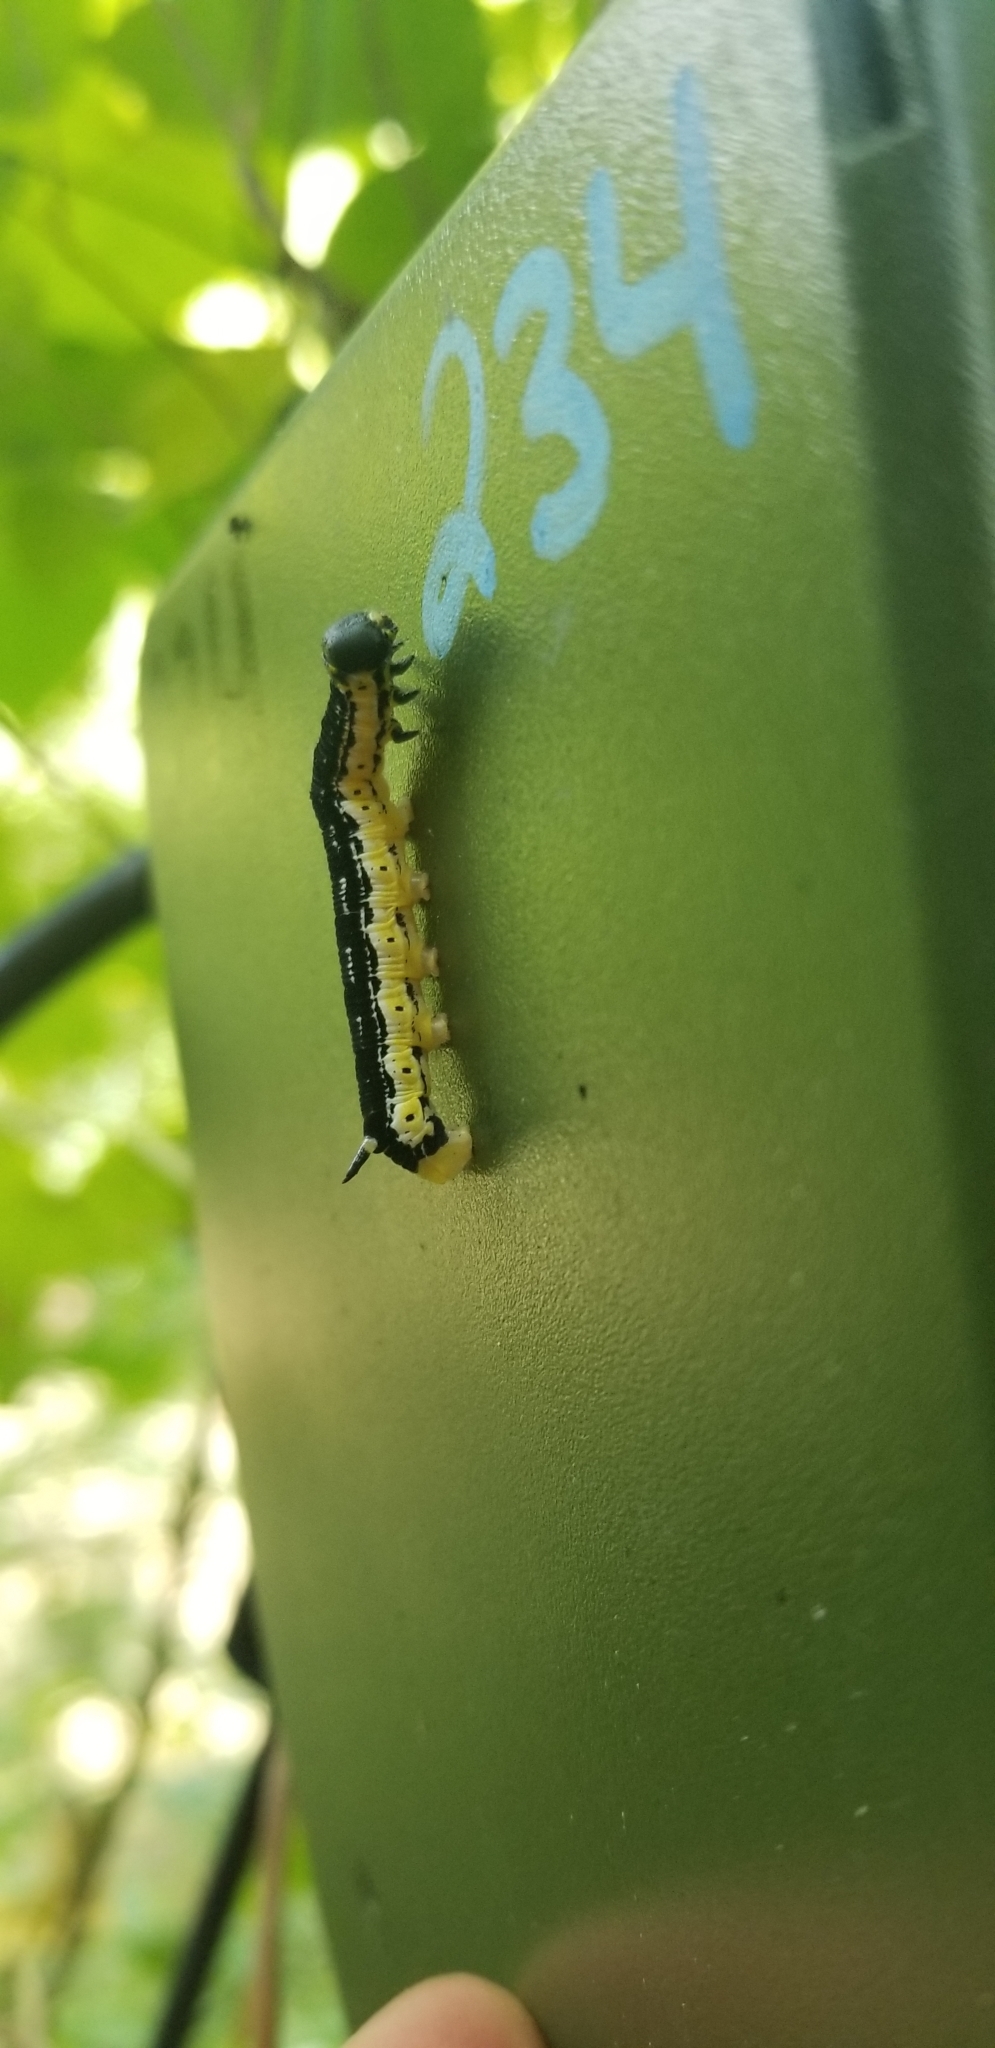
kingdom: Animalia
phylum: Arthropoda
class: Insecta
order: Lepidoptera
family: Sphingidae
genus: Ceratomia
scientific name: Ceratomia catalpae
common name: Catalpa hornworm
